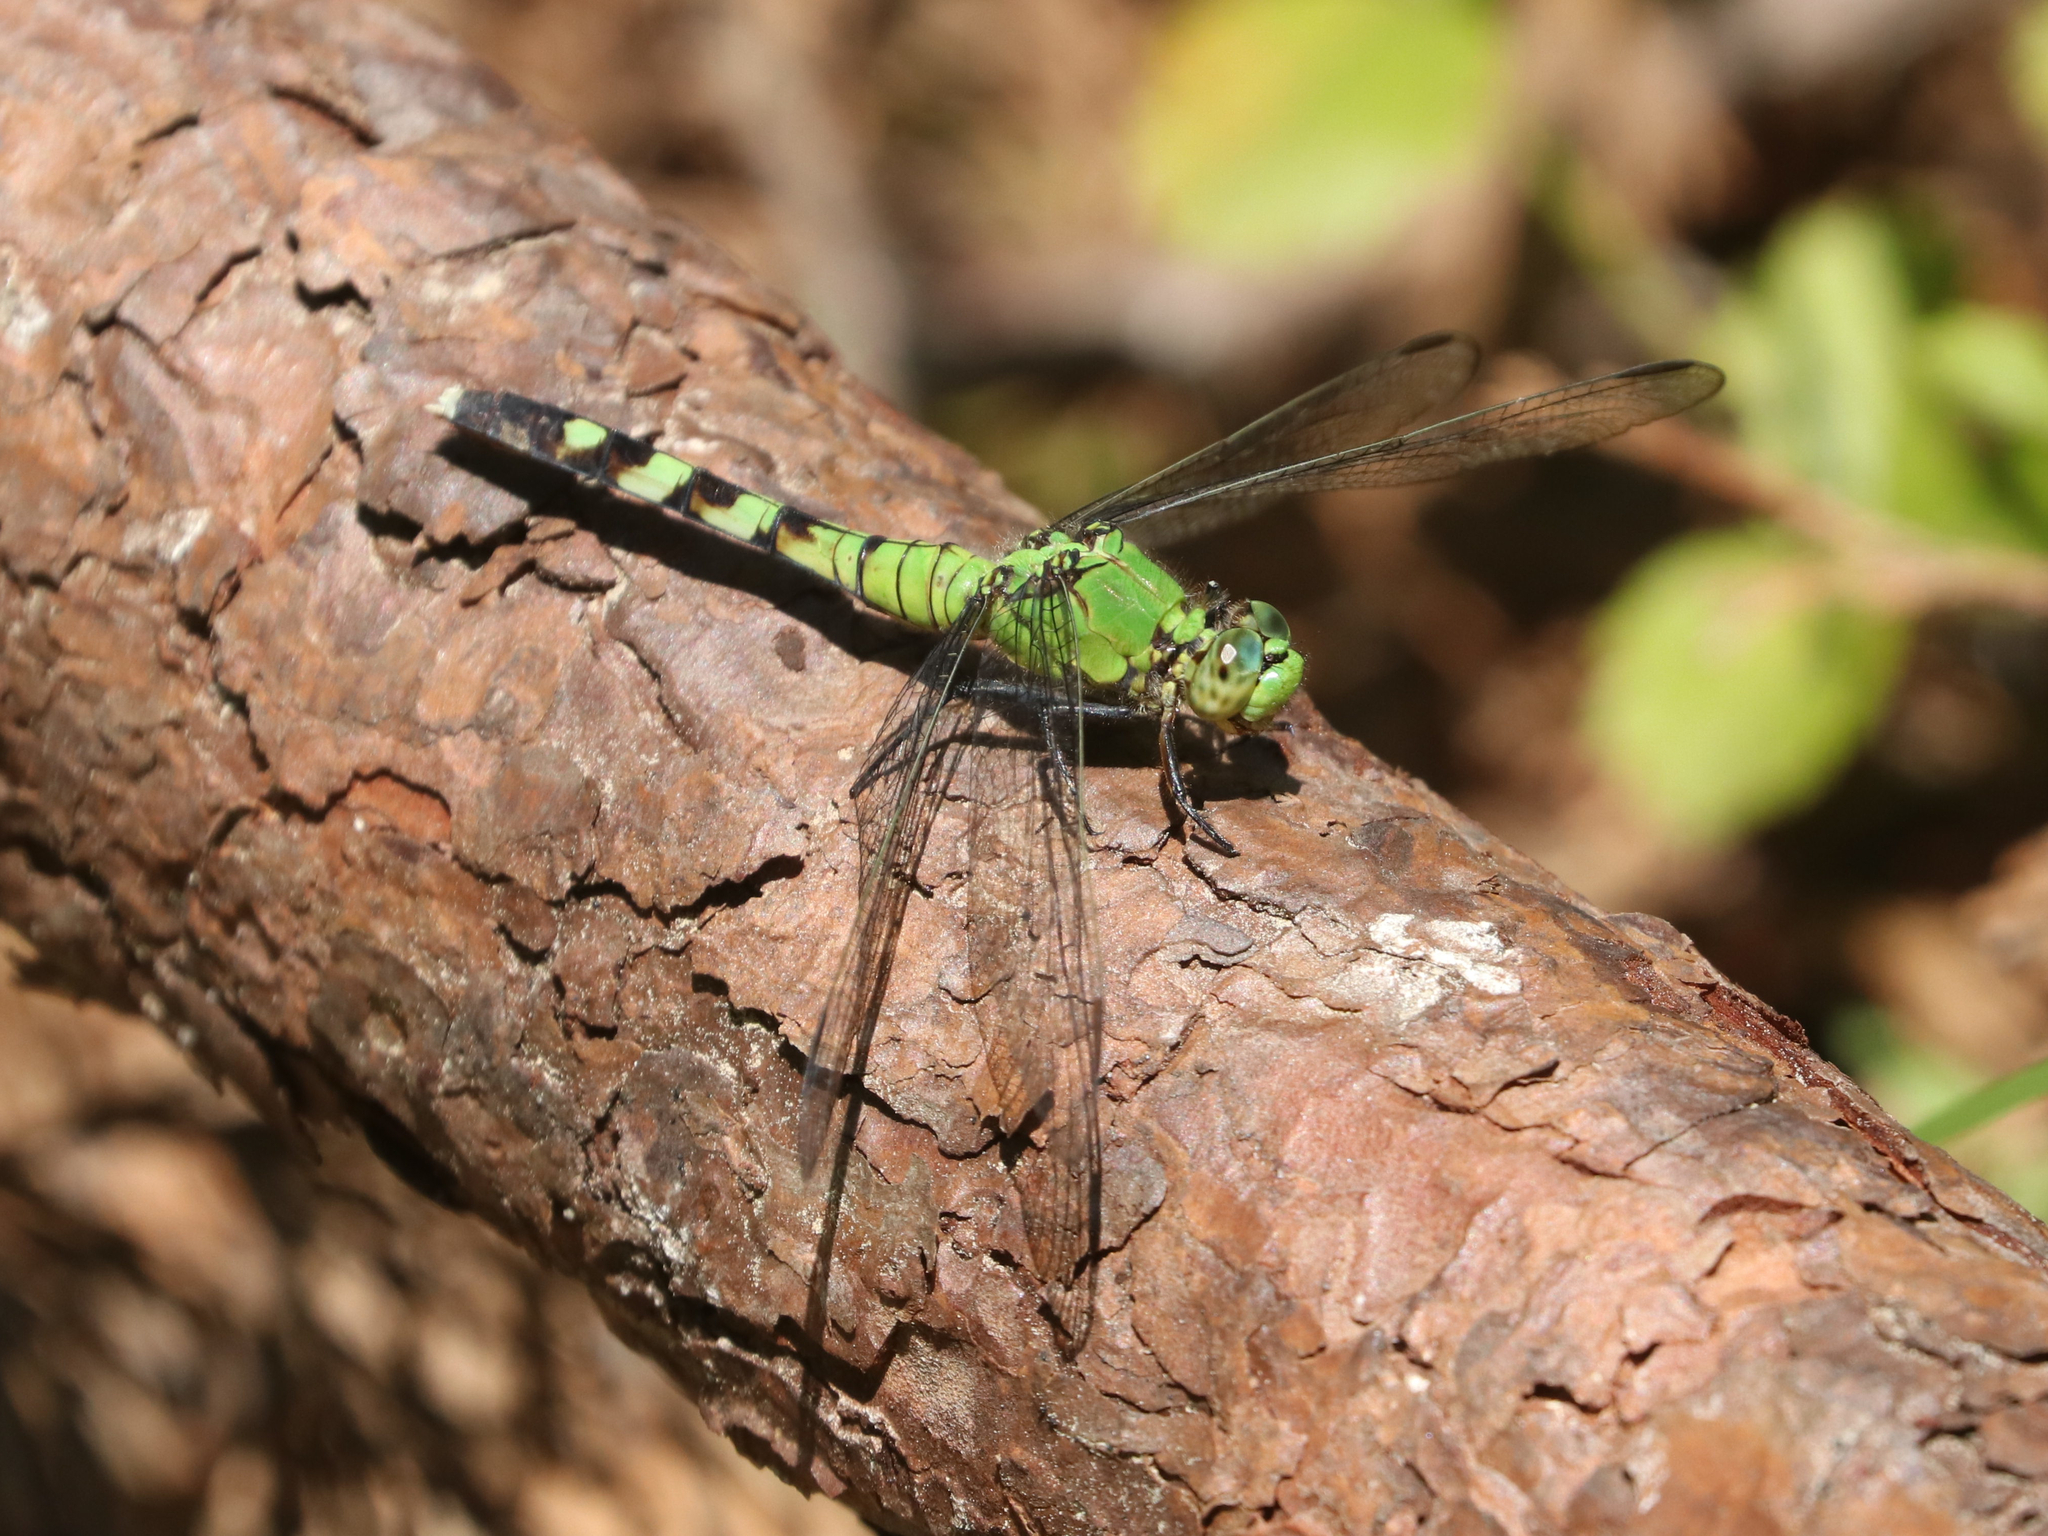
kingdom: Animalia
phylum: Arthropoda
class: Insecta
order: Odonata
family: Libellulidae
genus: Erythemis
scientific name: Erythemis simplicicollis
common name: Eastern pondhawk
